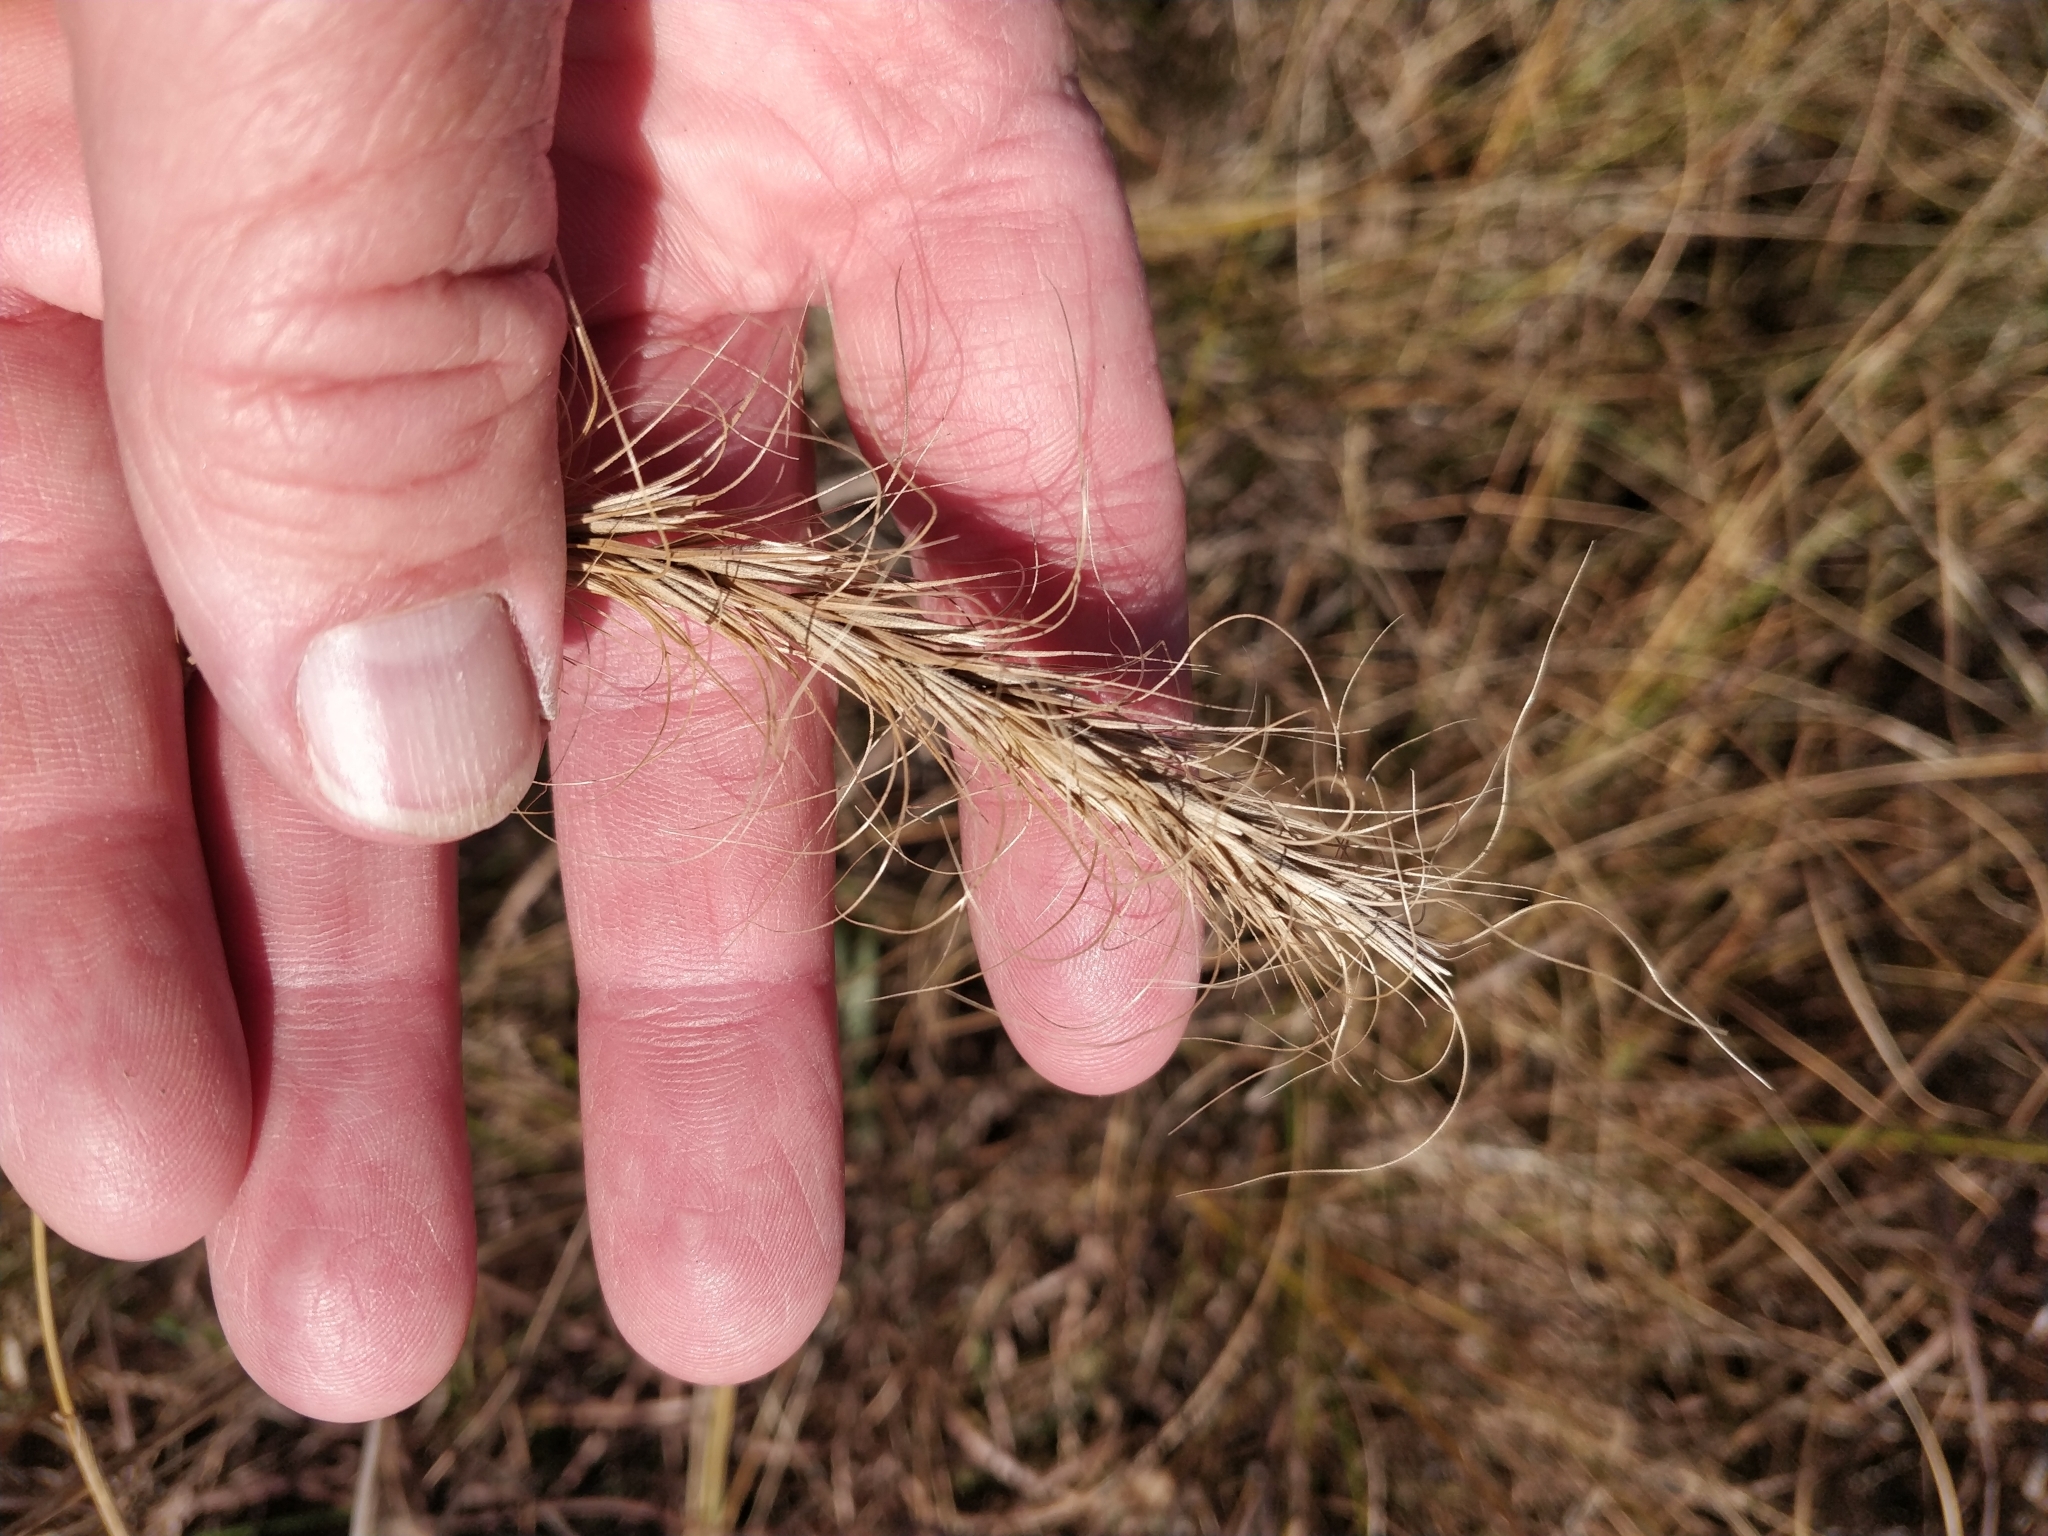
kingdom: Plantae
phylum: Tracheophyta
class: Liliopsida
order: Poales
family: Poaceae
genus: Elymus
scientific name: Elymus canadensis
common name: Canada wild rye
